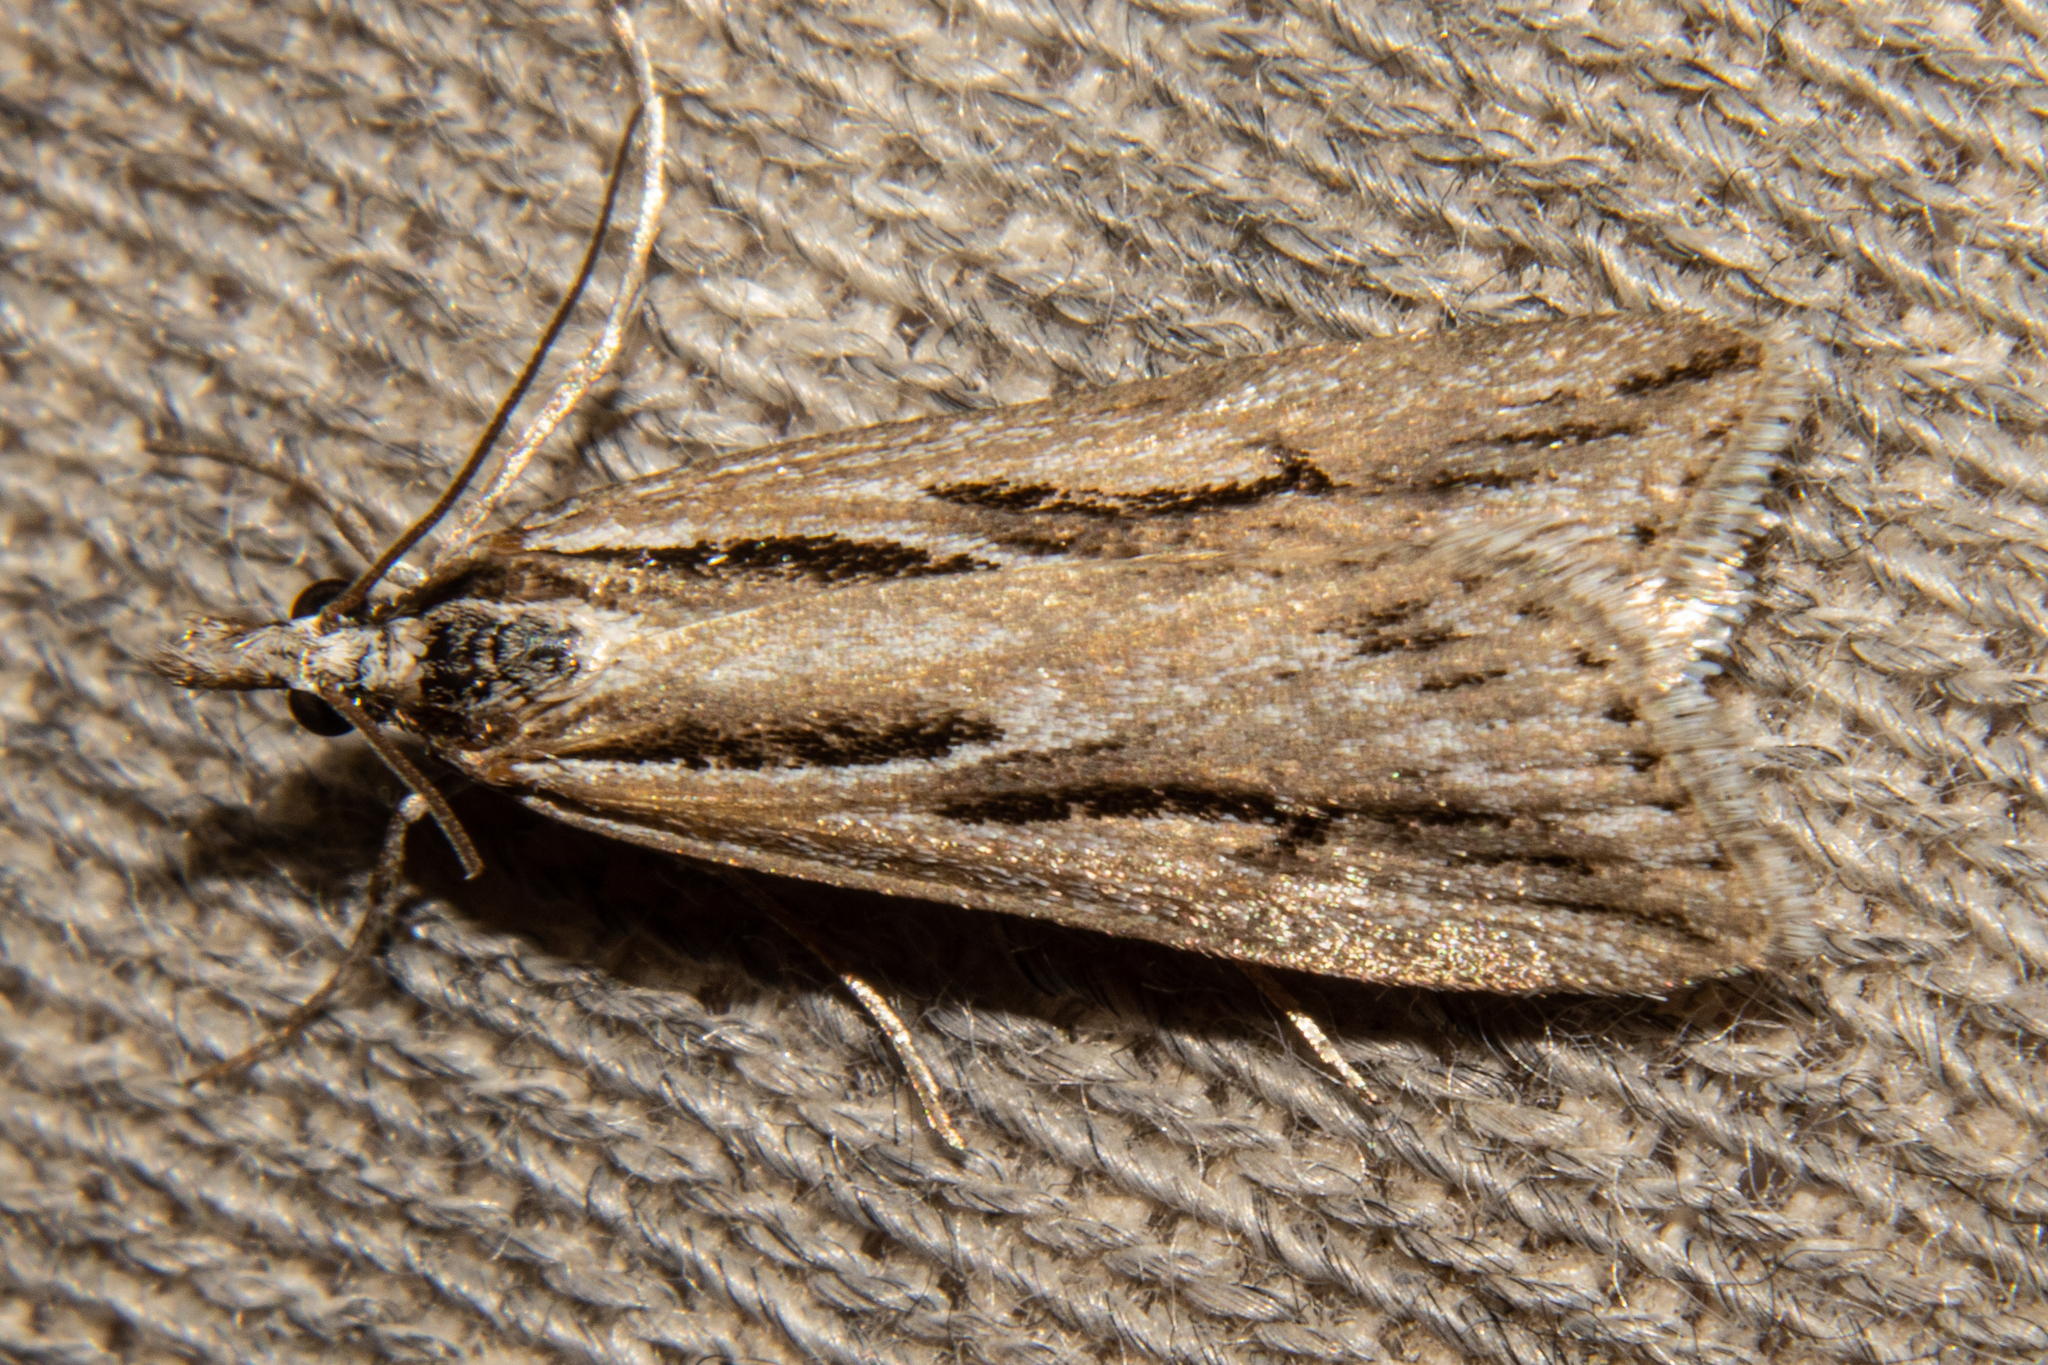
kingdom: Animalia
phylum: Arthropoda
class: Insecta
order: Lepidoptera
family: Crambidae
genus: Scoparia
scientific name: Scoparia panopla
